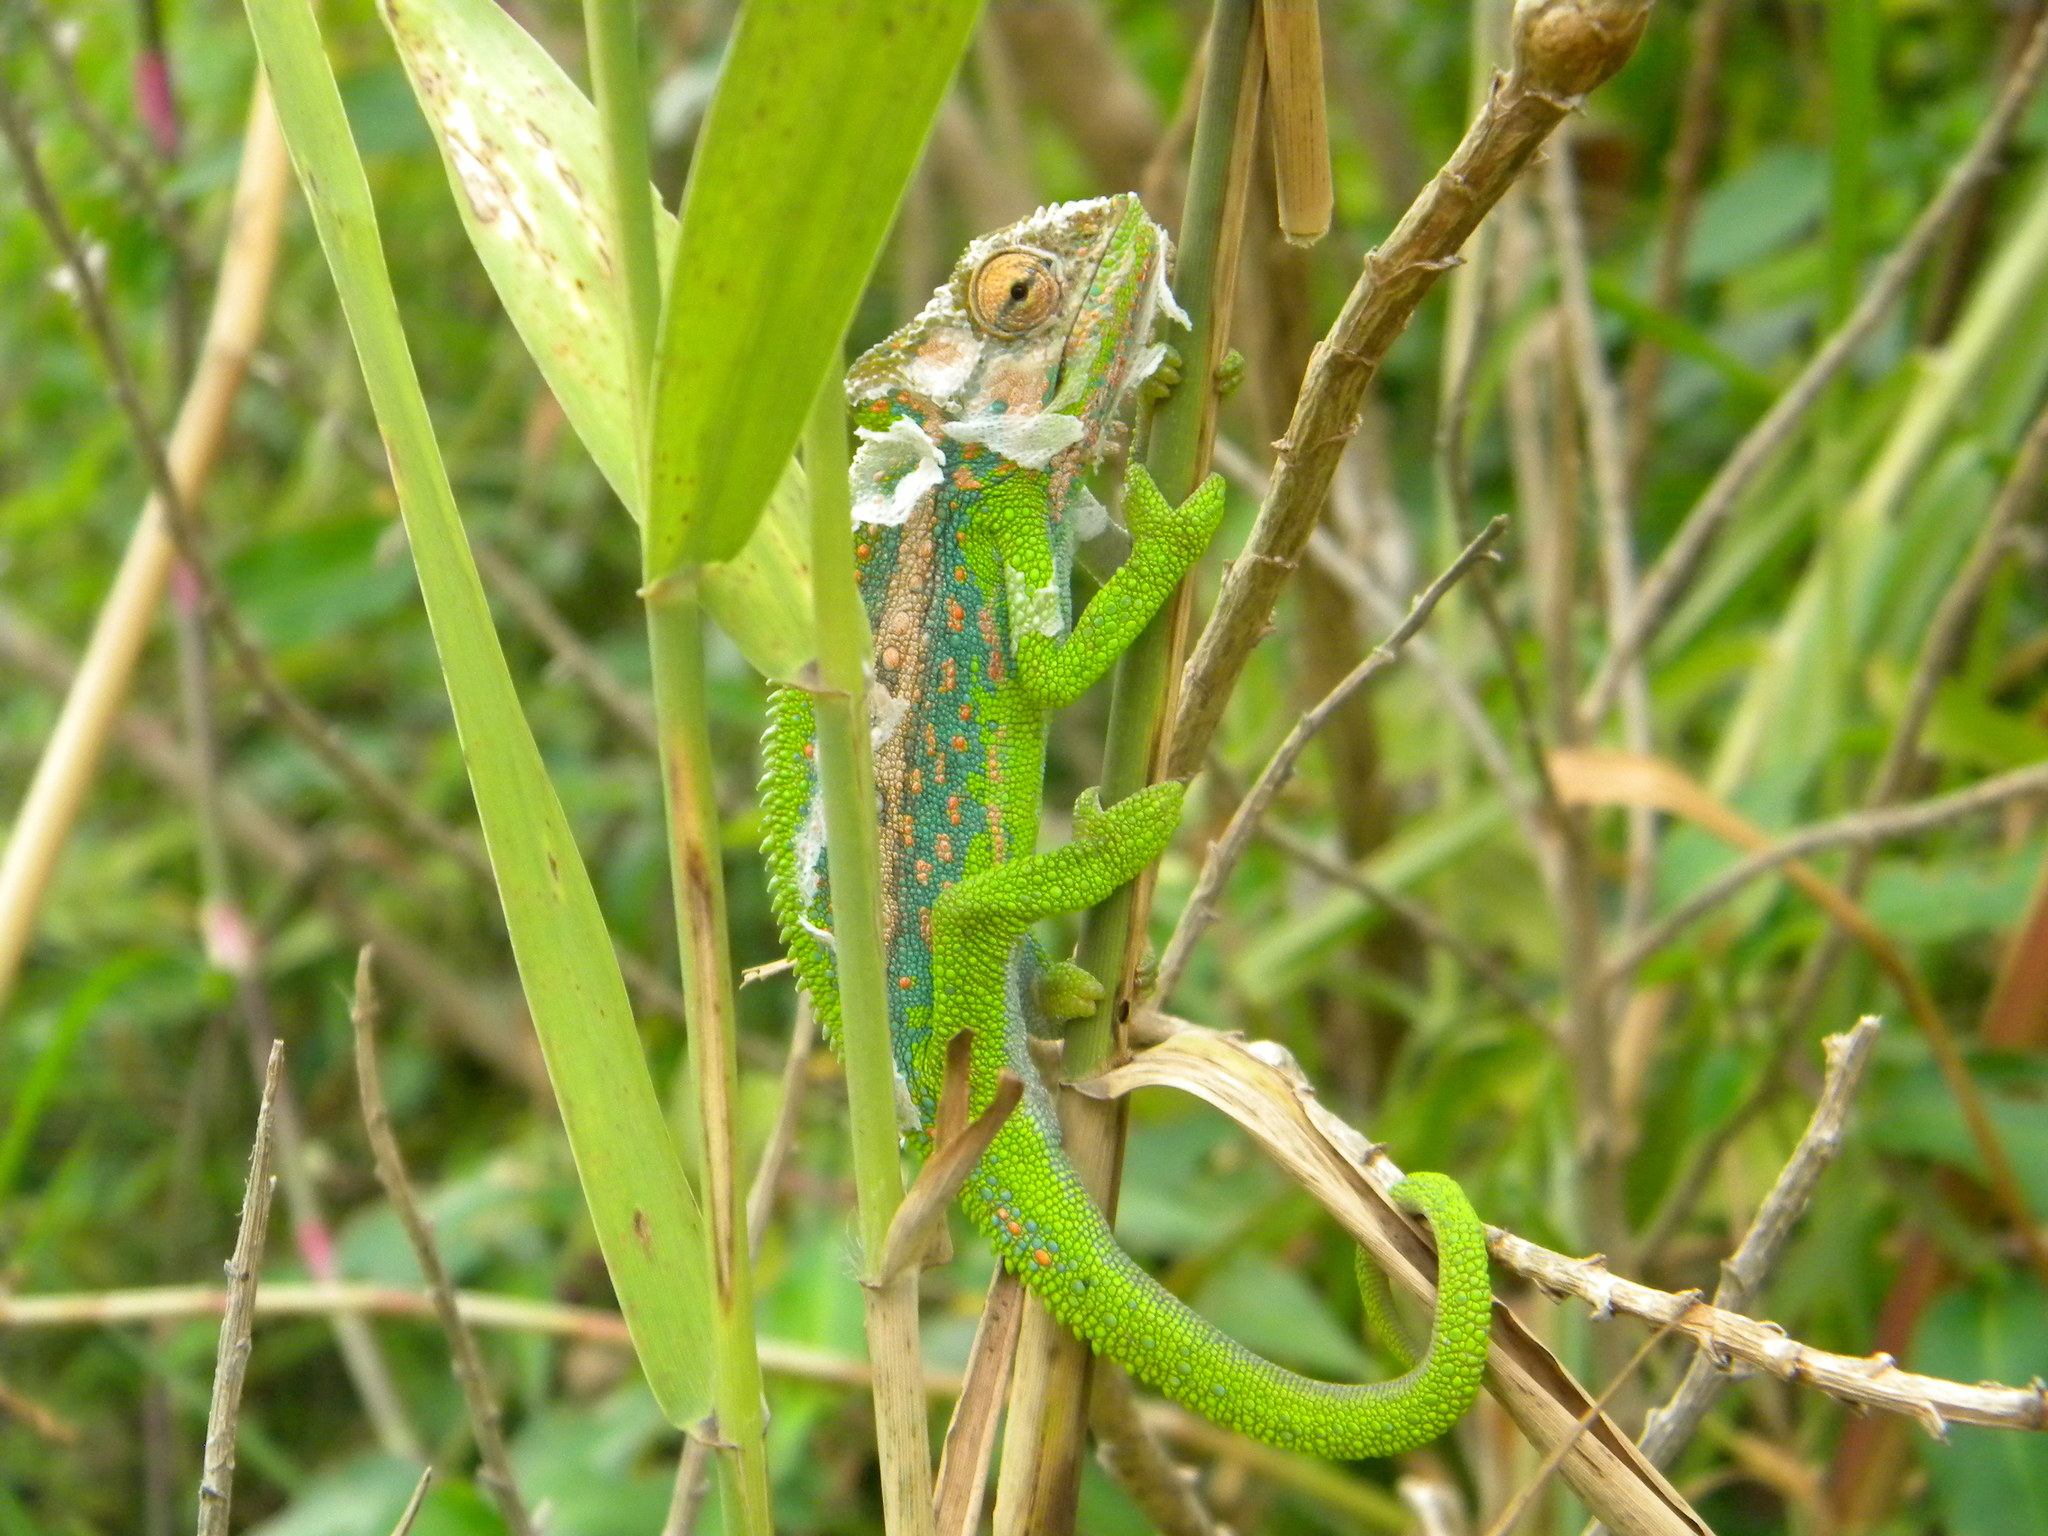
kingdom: Animalia
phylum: Chordata
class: Squamata
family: Chamaeleonidae
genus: Bradypodion
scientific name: Bradypodion pumilum
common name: Cape dwarf chameleon
